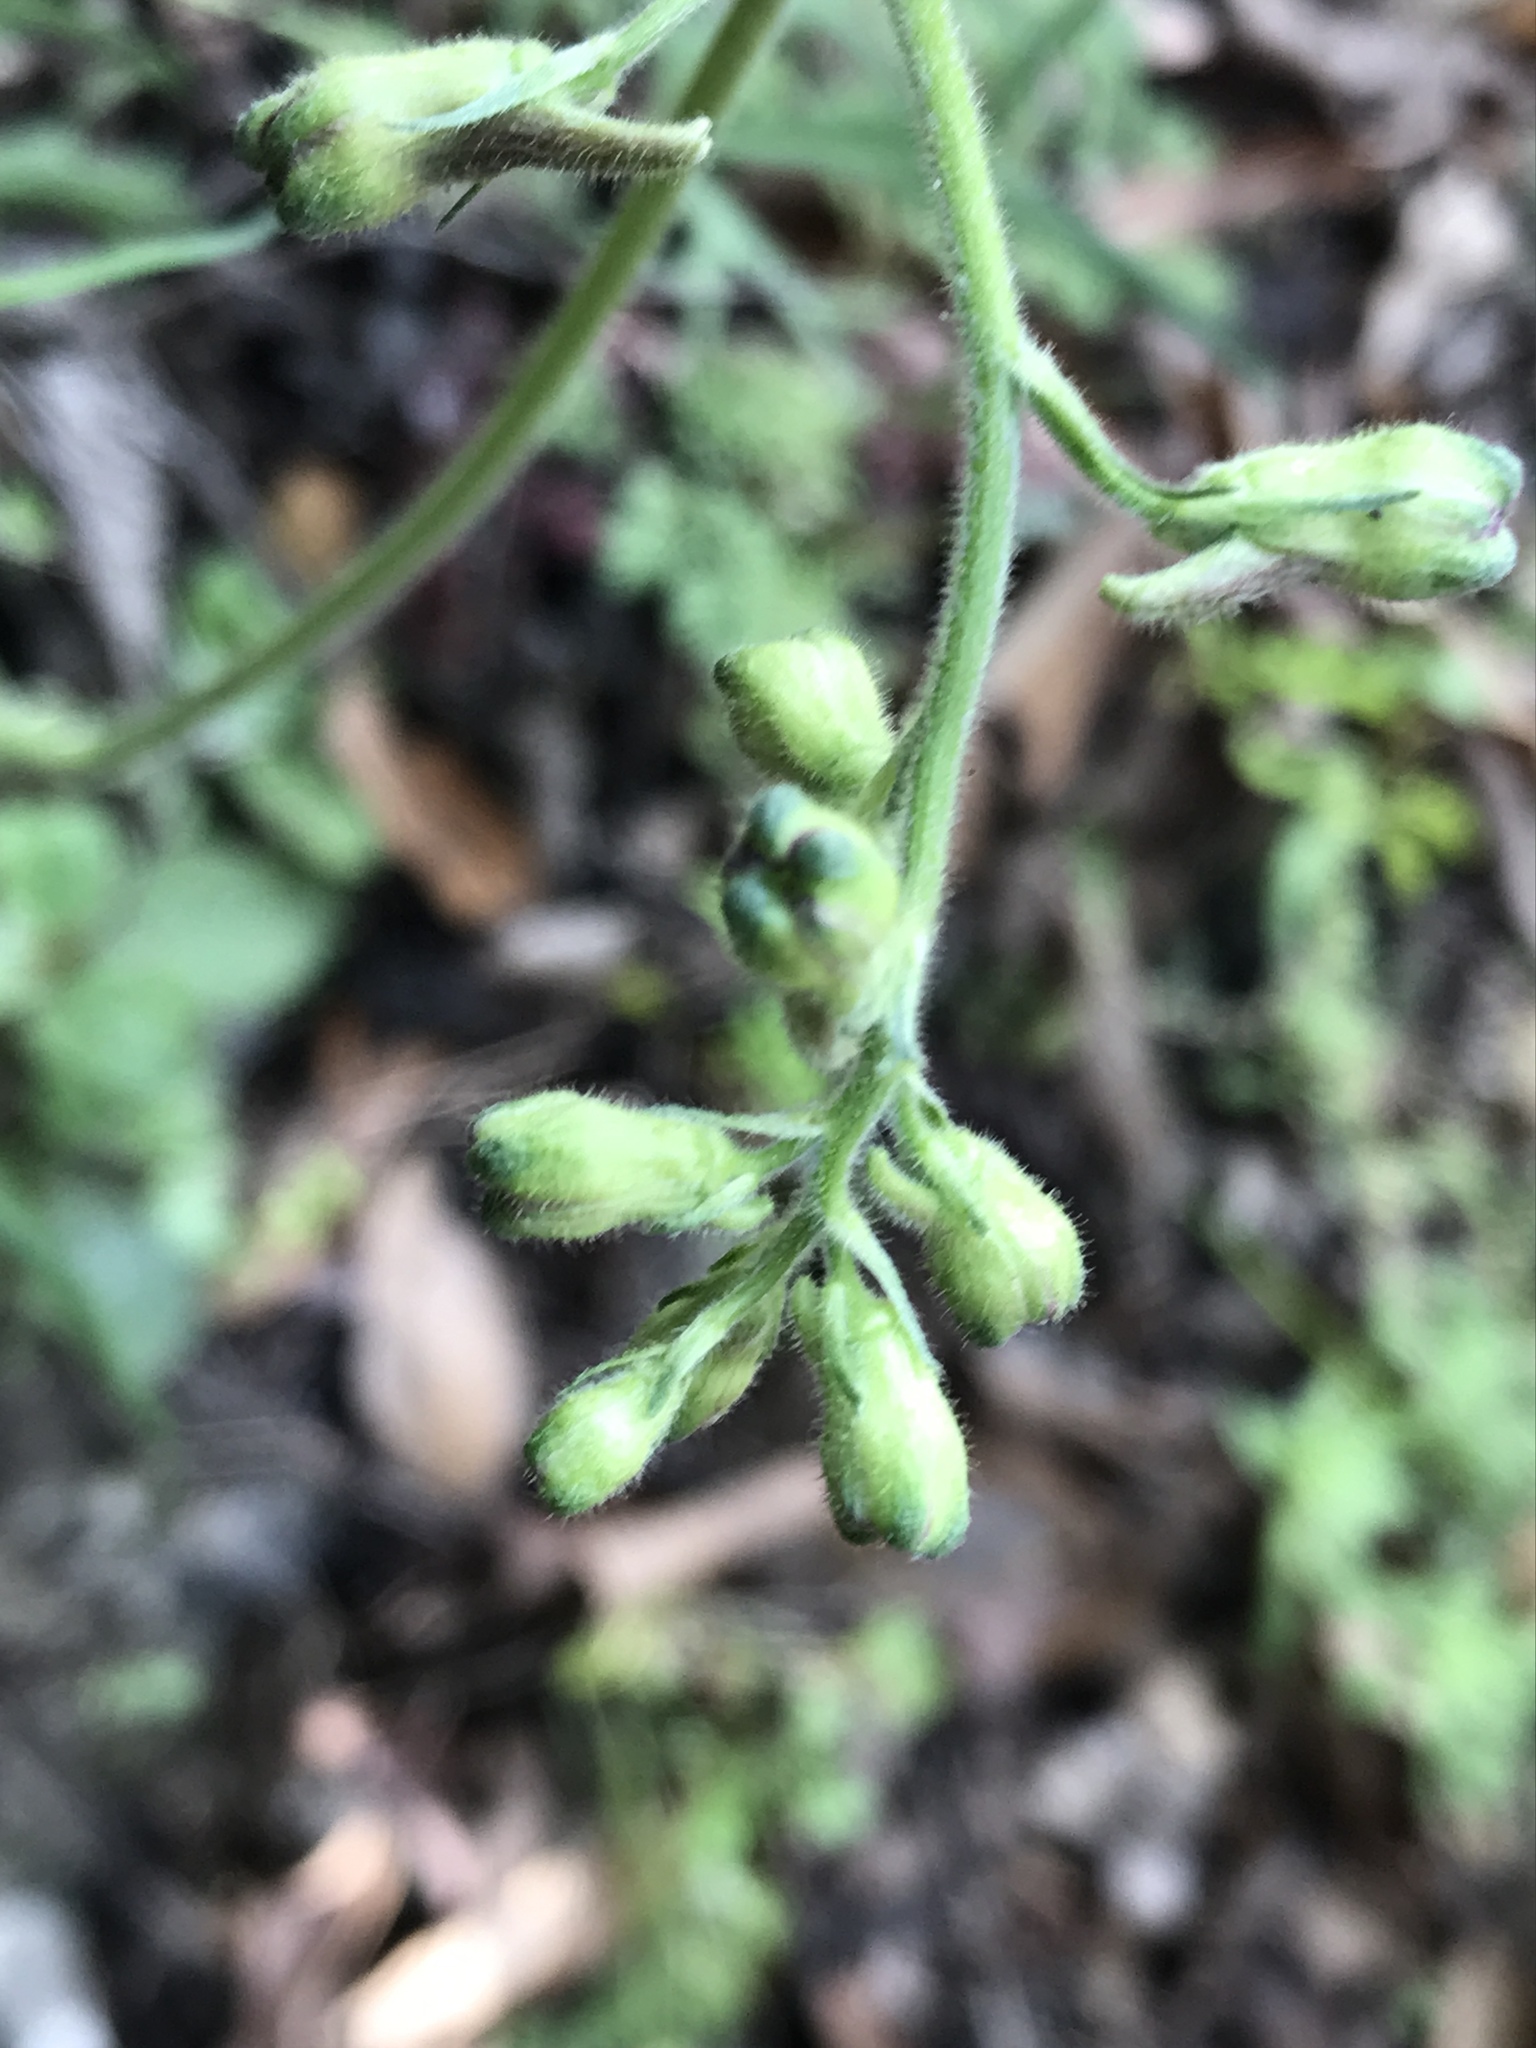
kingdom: Plantae
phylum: Tracheophyta
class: Magnoliopsida
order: Ranunculales
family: Ranunculaceae
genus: Delphinium
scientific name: Delphinium madrense
